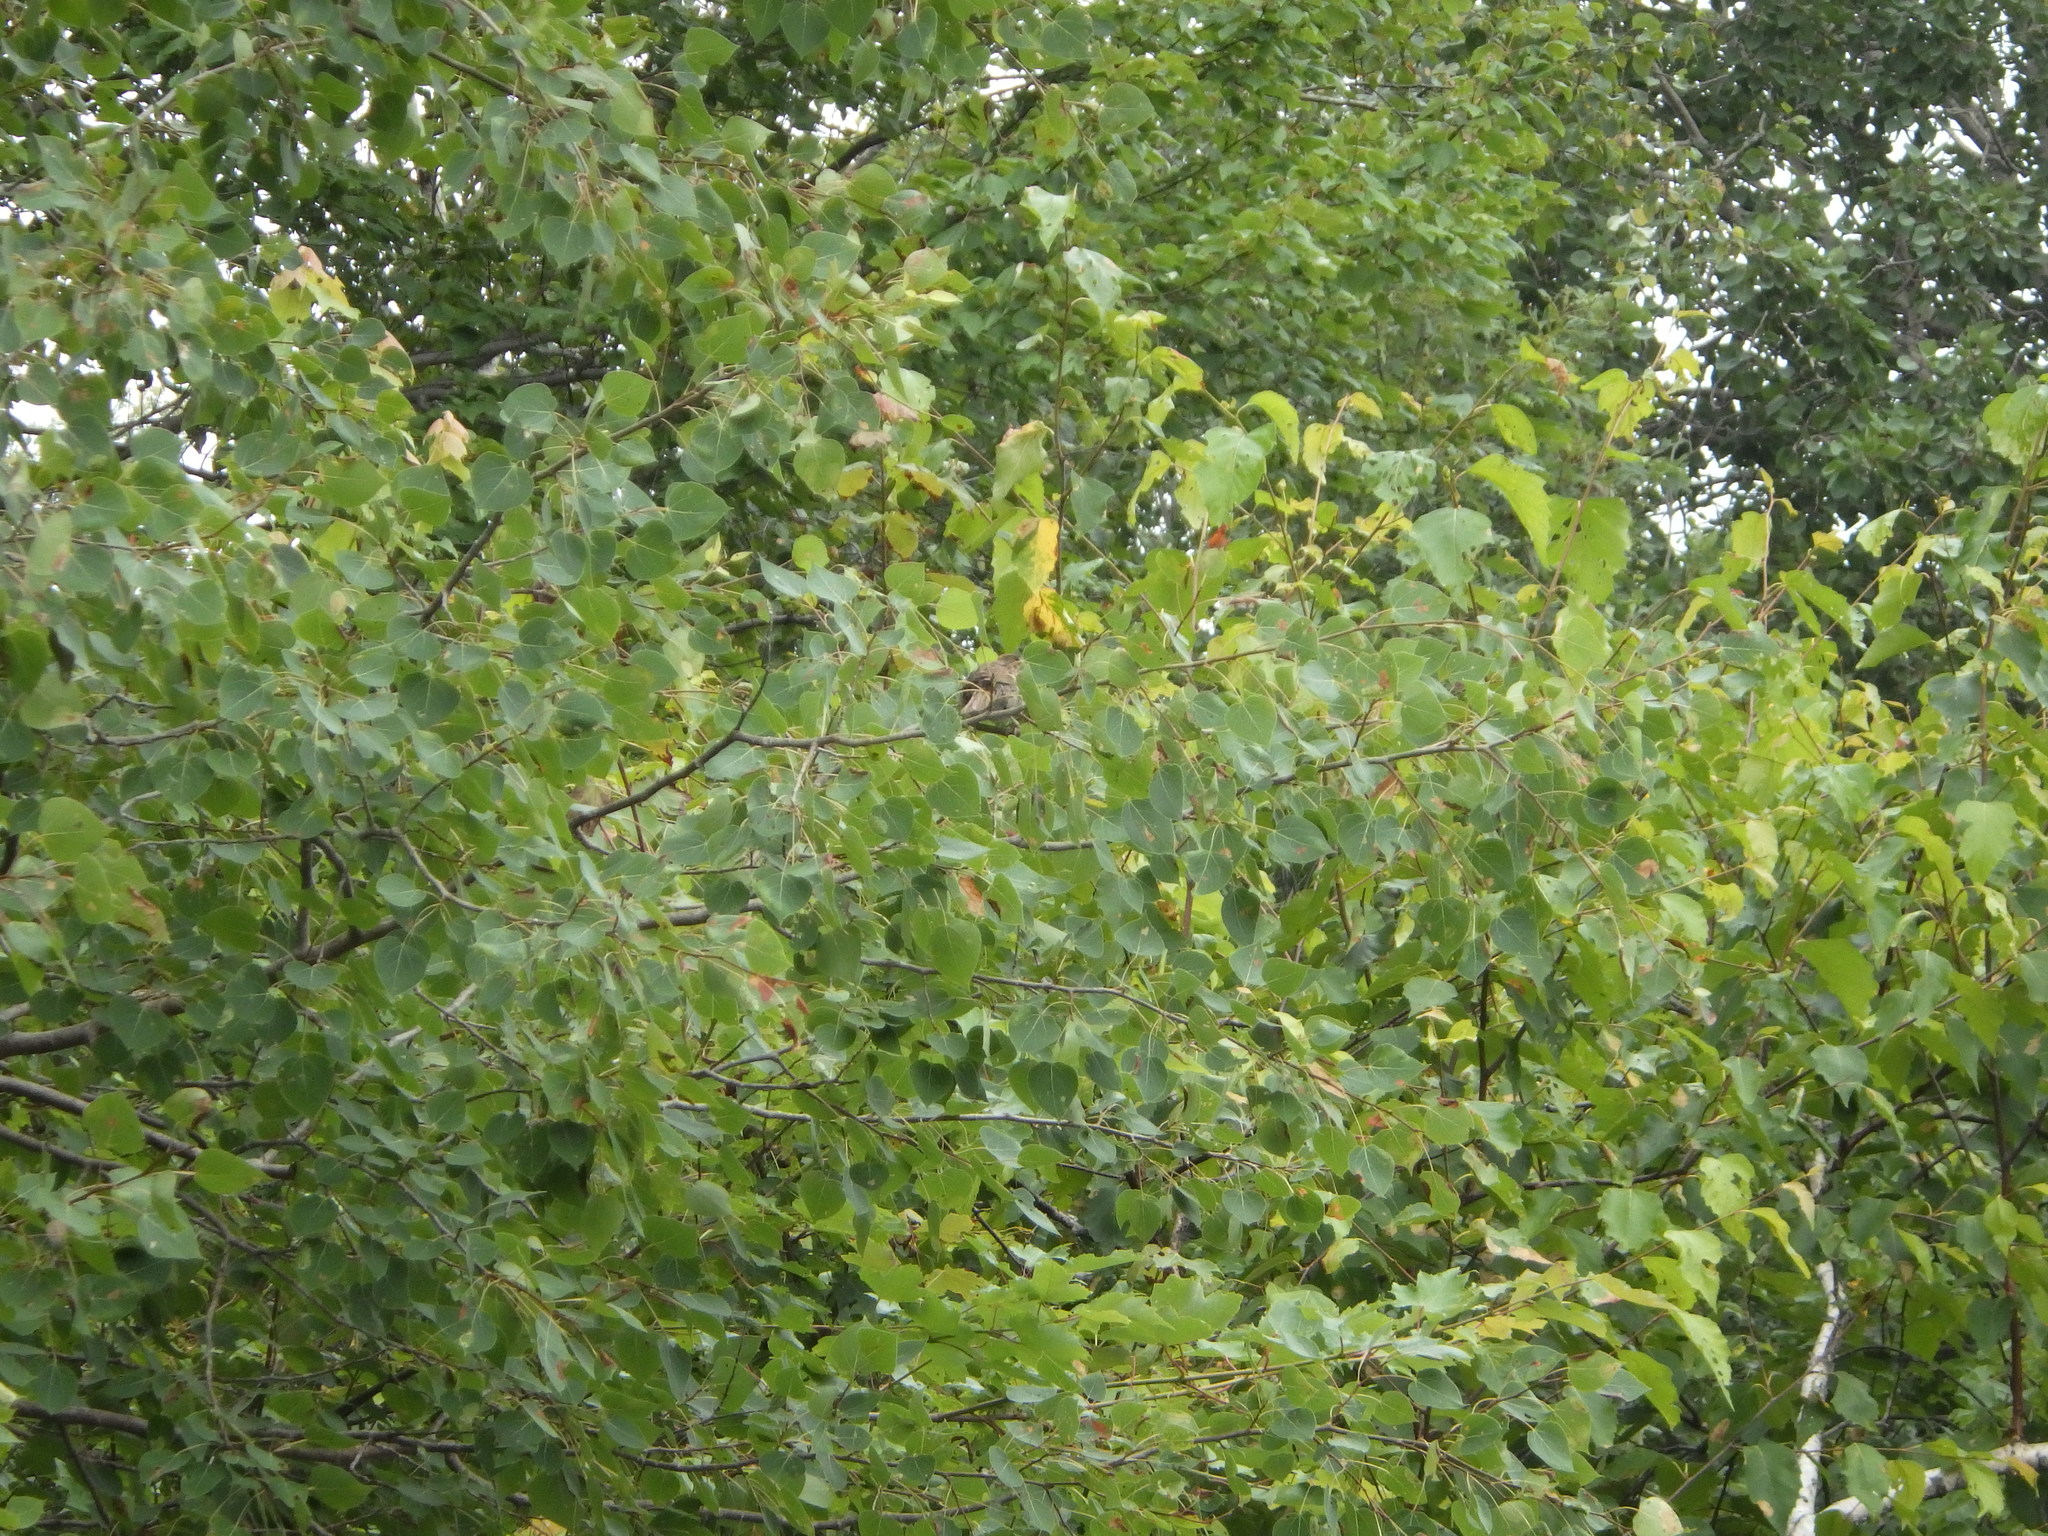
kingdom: Plantae
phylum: Tracheophyta
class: Magnoliopsida
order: Malpighiales
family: Salicaceae
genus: Populus
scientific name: Populus tremuloides
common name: Quaking aspen
